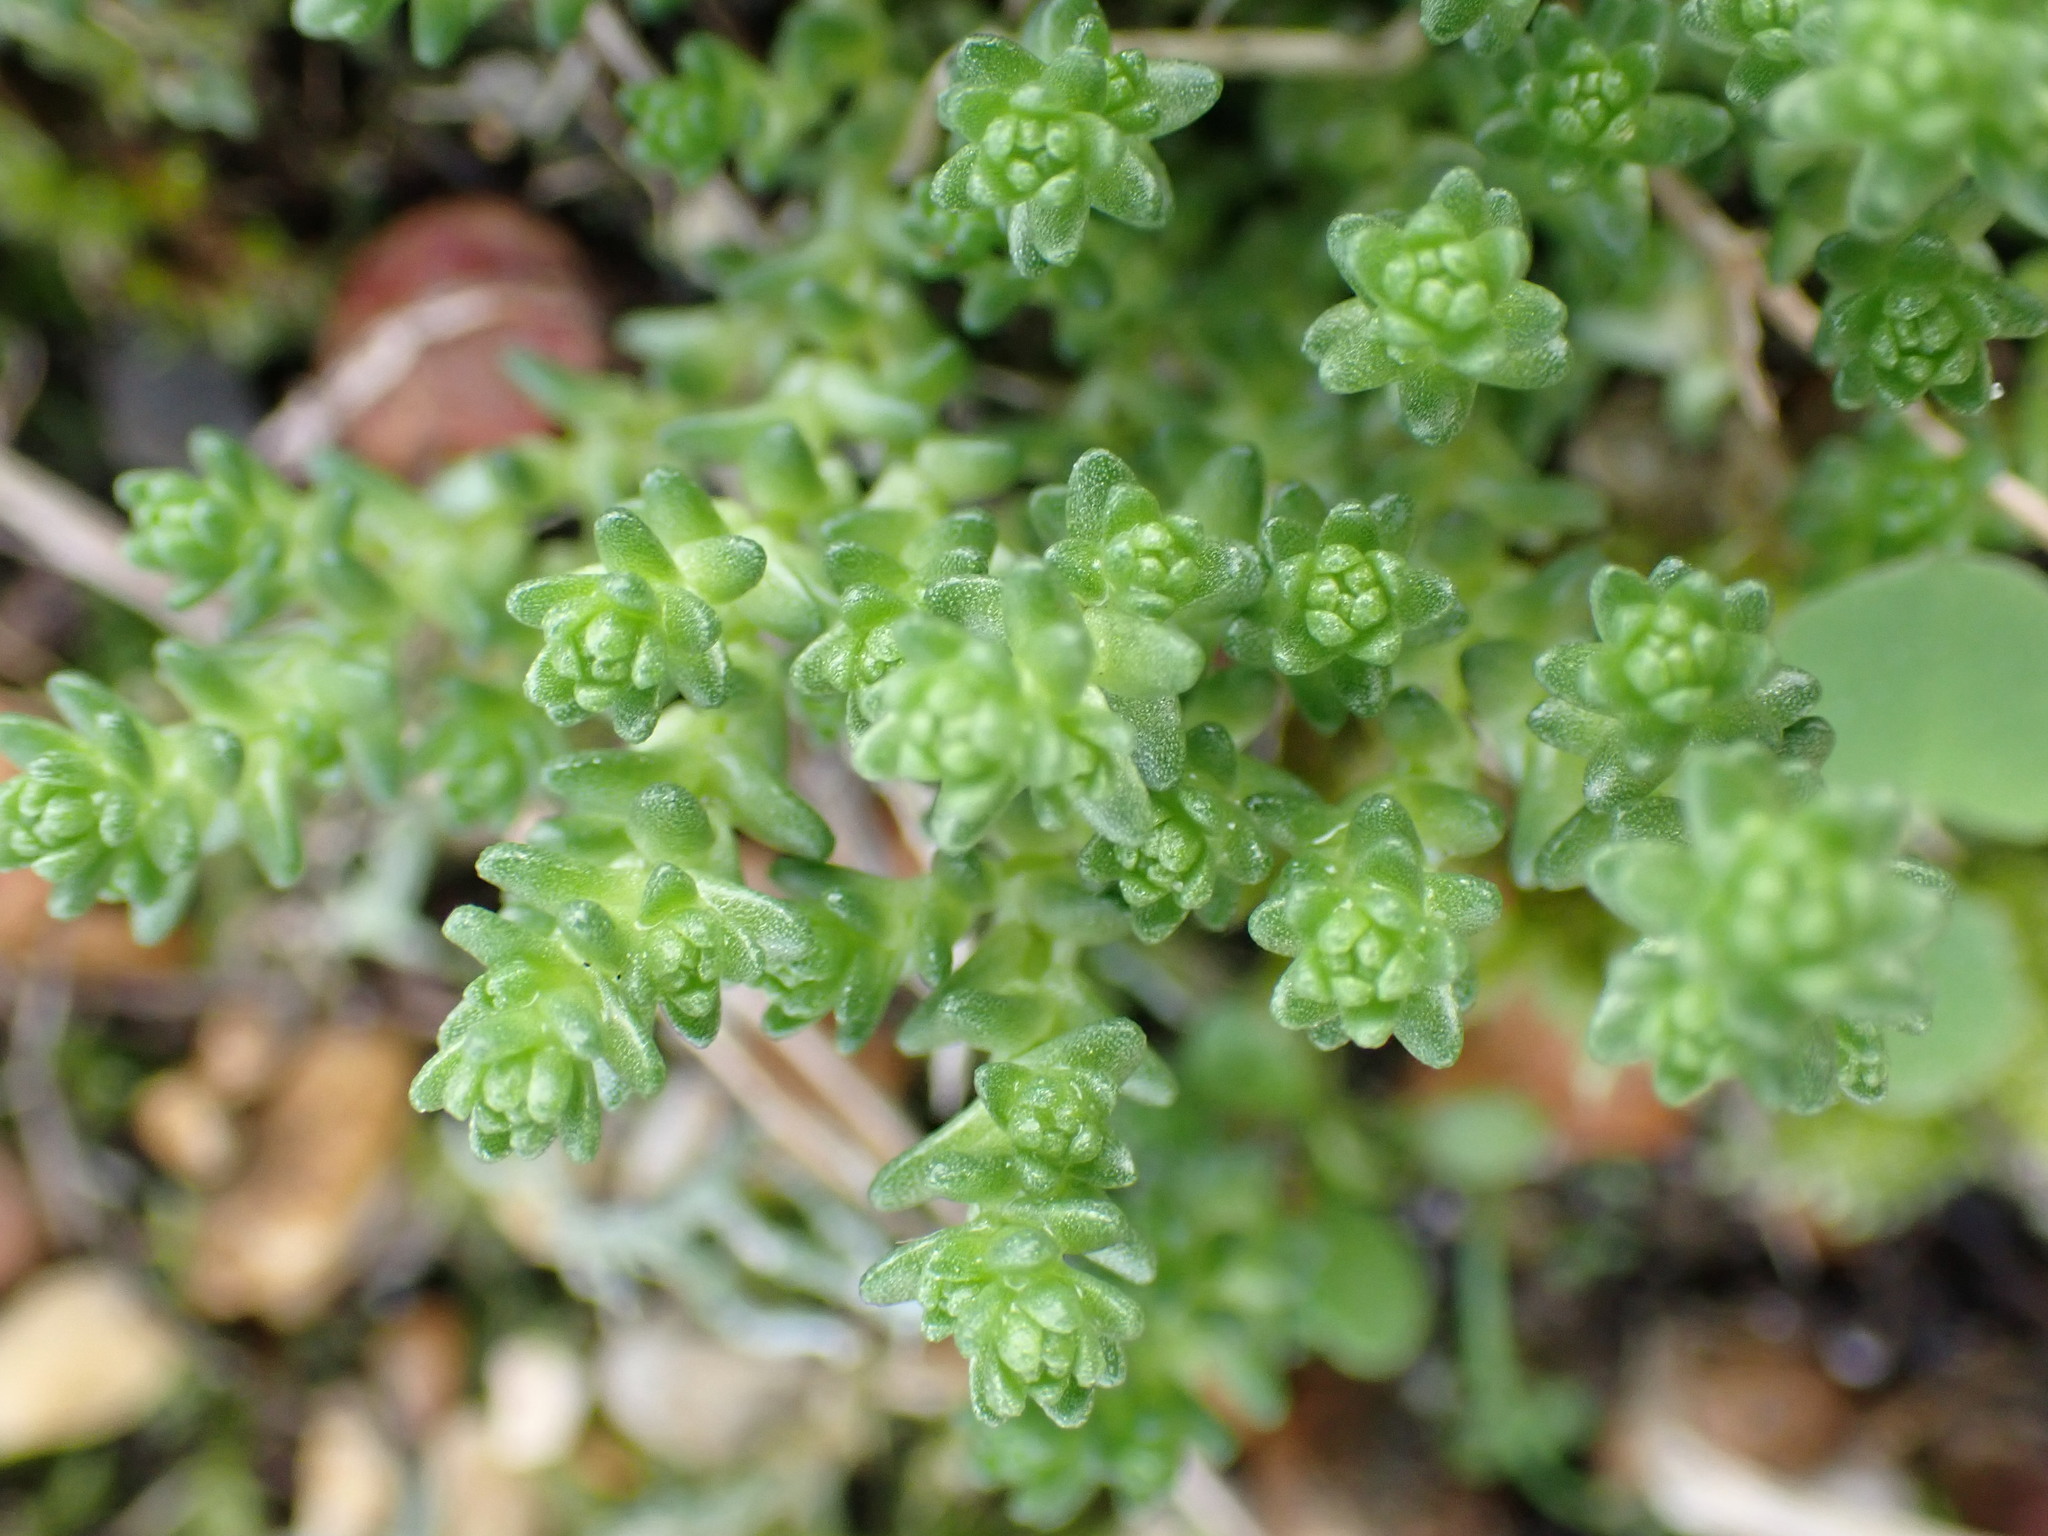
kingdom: Plantae
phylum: Tracheophyta
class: Magnoliopsida
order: Saxifragales
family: Crassulaceae
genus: Sedum
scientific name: Sedum acre
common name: Biting stonecrop
